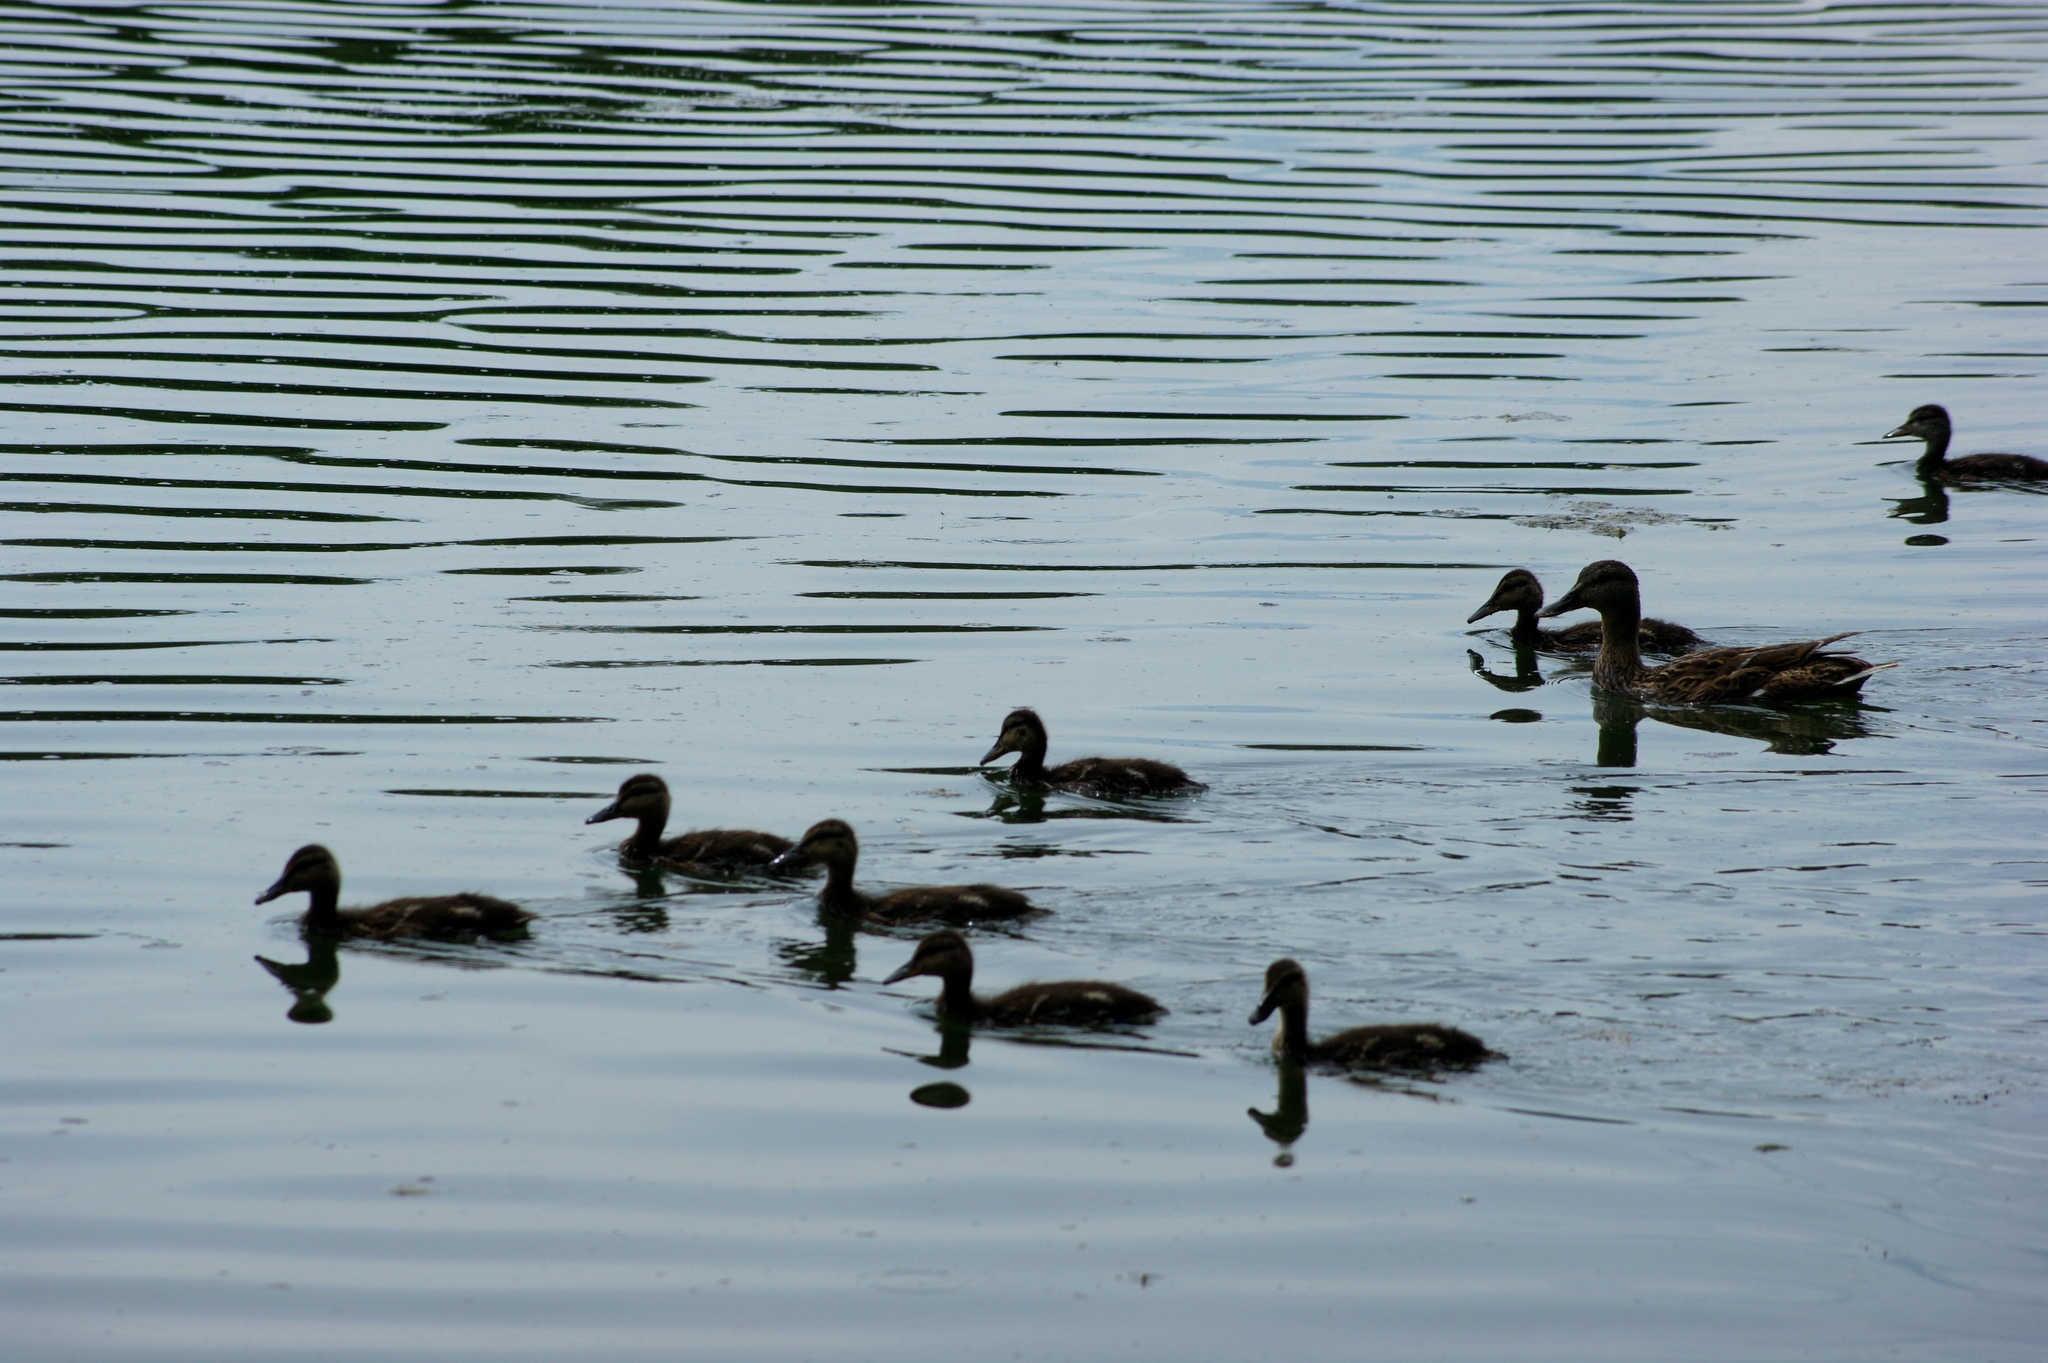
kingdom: Animalia
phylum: Chordata
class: Aves
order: Anseriformes
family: Anatidae
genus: Anas
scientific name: Anas platyrhynchos
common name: Mallard
